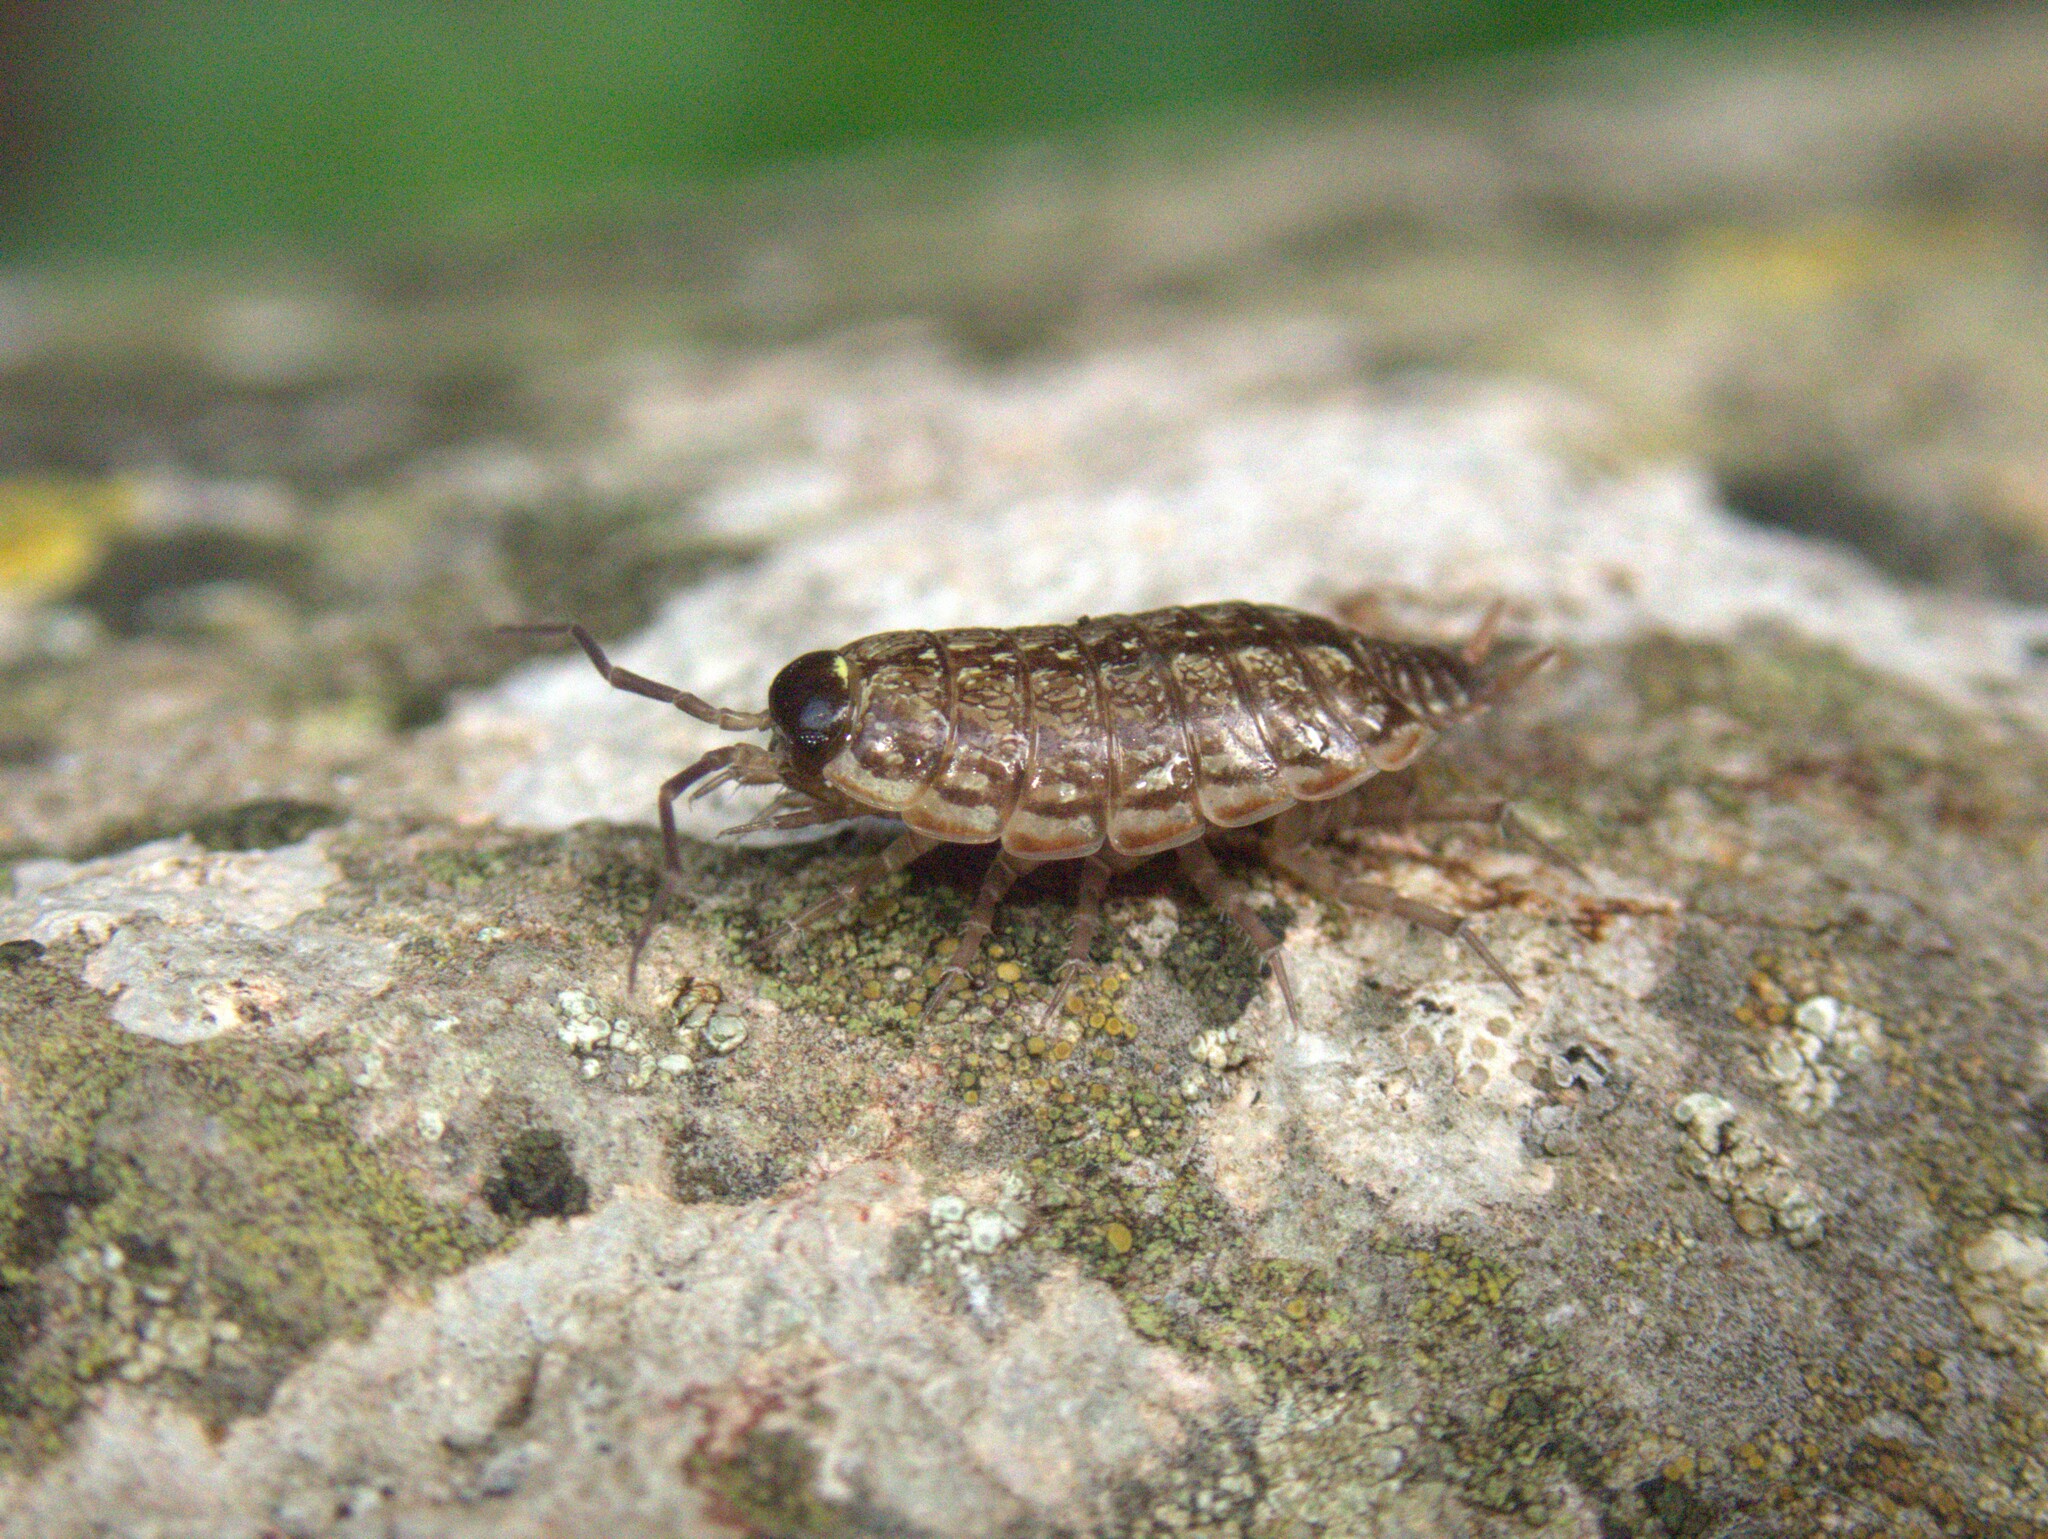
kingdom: Animalia
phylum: Arthropoda
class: Malacostraca
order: Isopoda
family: Philosciidae
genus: Philoscia
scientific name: Philoscia muscorum
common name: Common striped woodlouse
